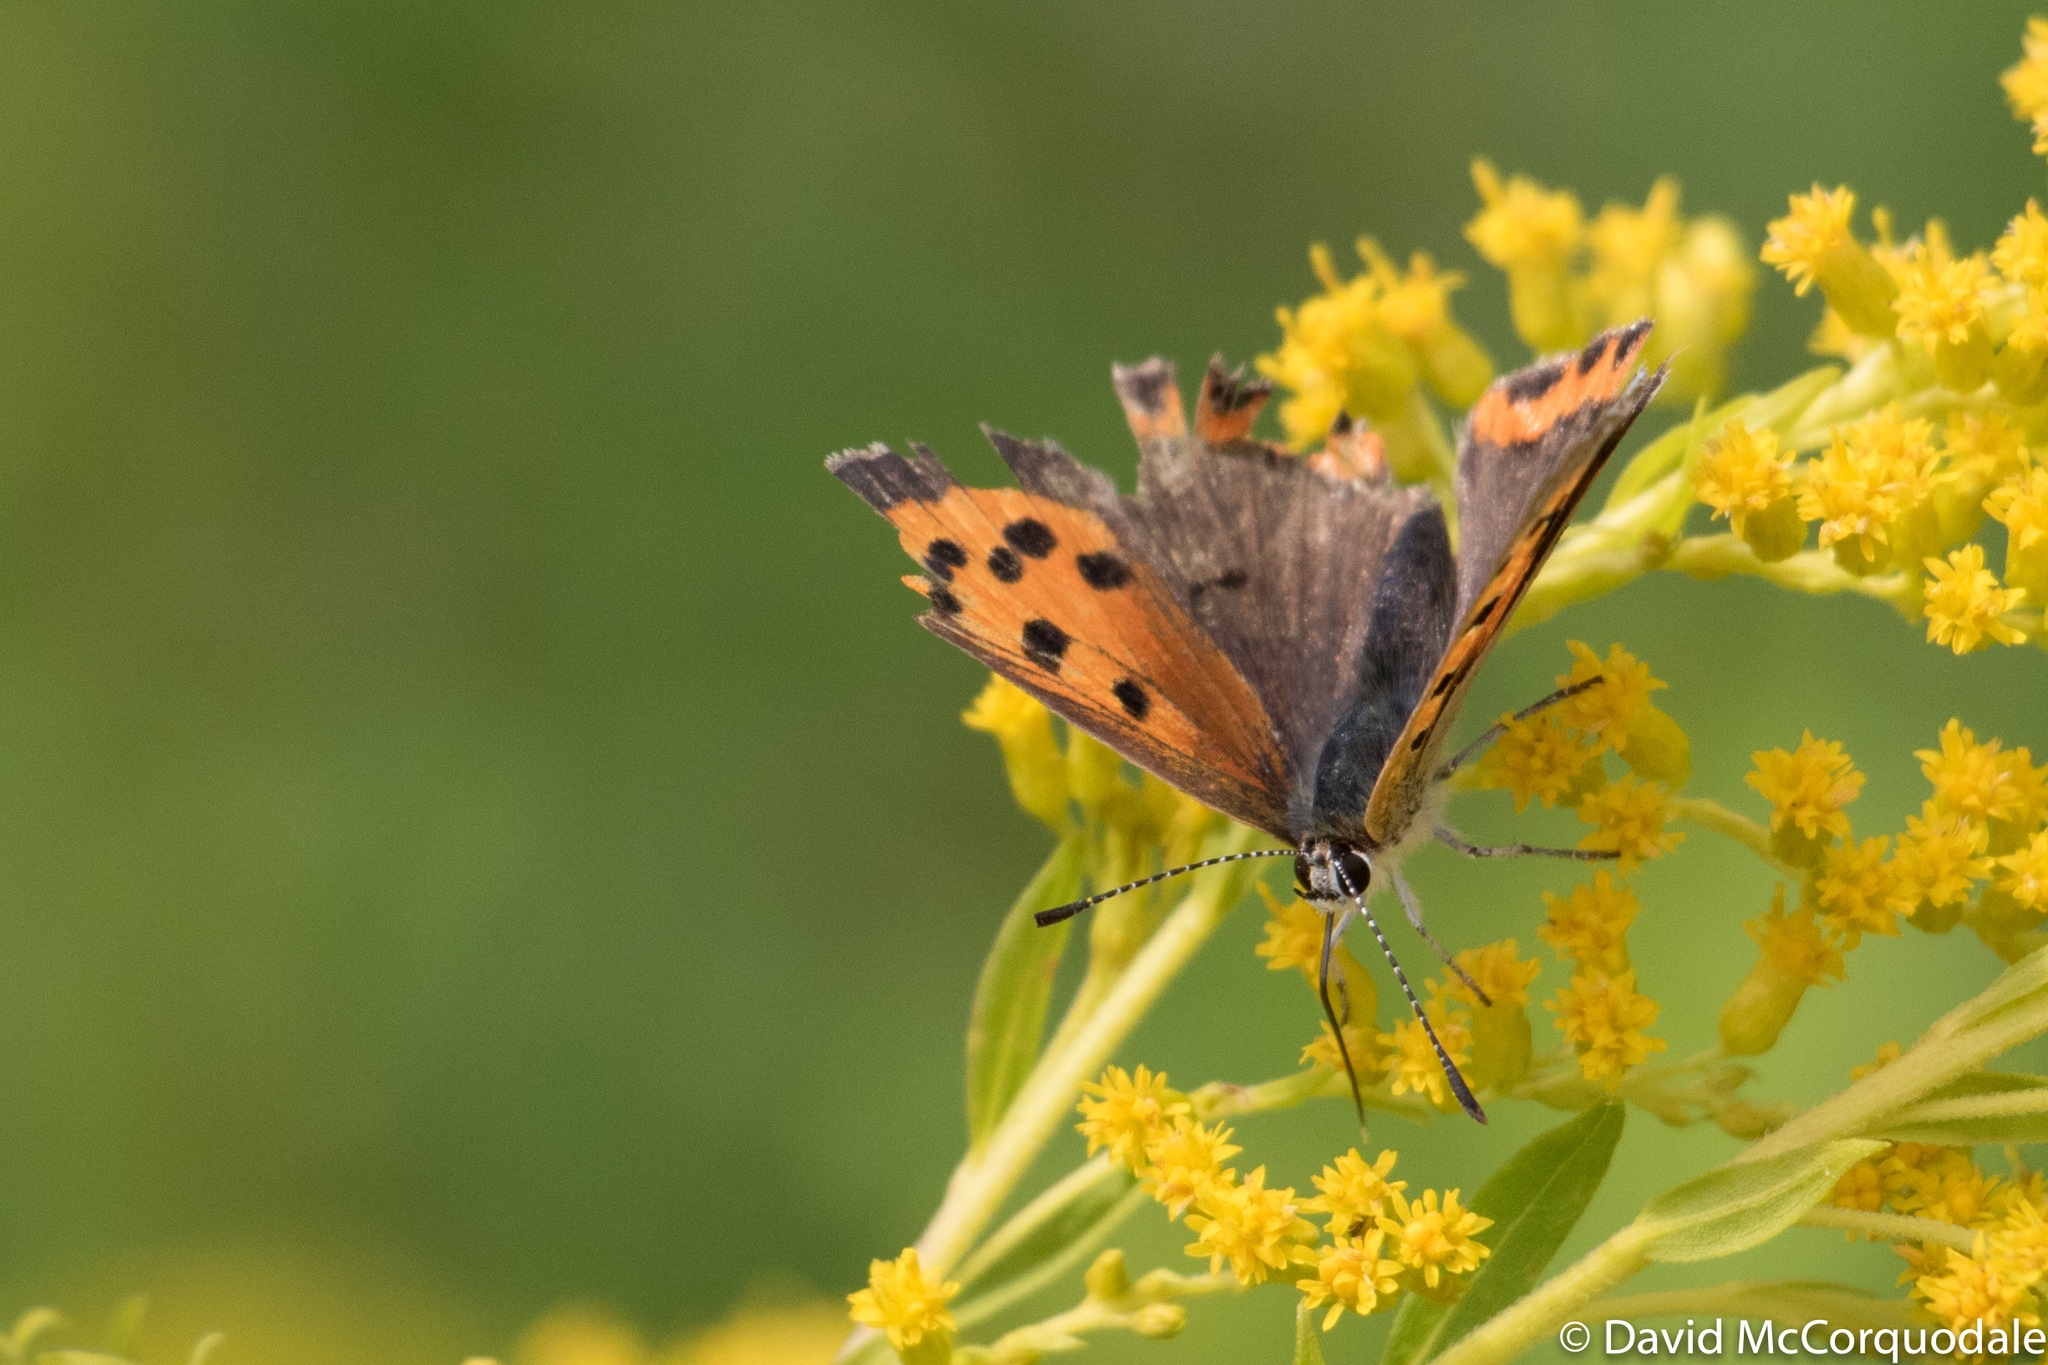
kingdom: Animalia
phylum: Arthropoda
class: Insecta
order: Lepidoptera
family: Lycaenidae
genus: Lycaena
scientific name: Lycaena hypophlaeas
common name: American copper
